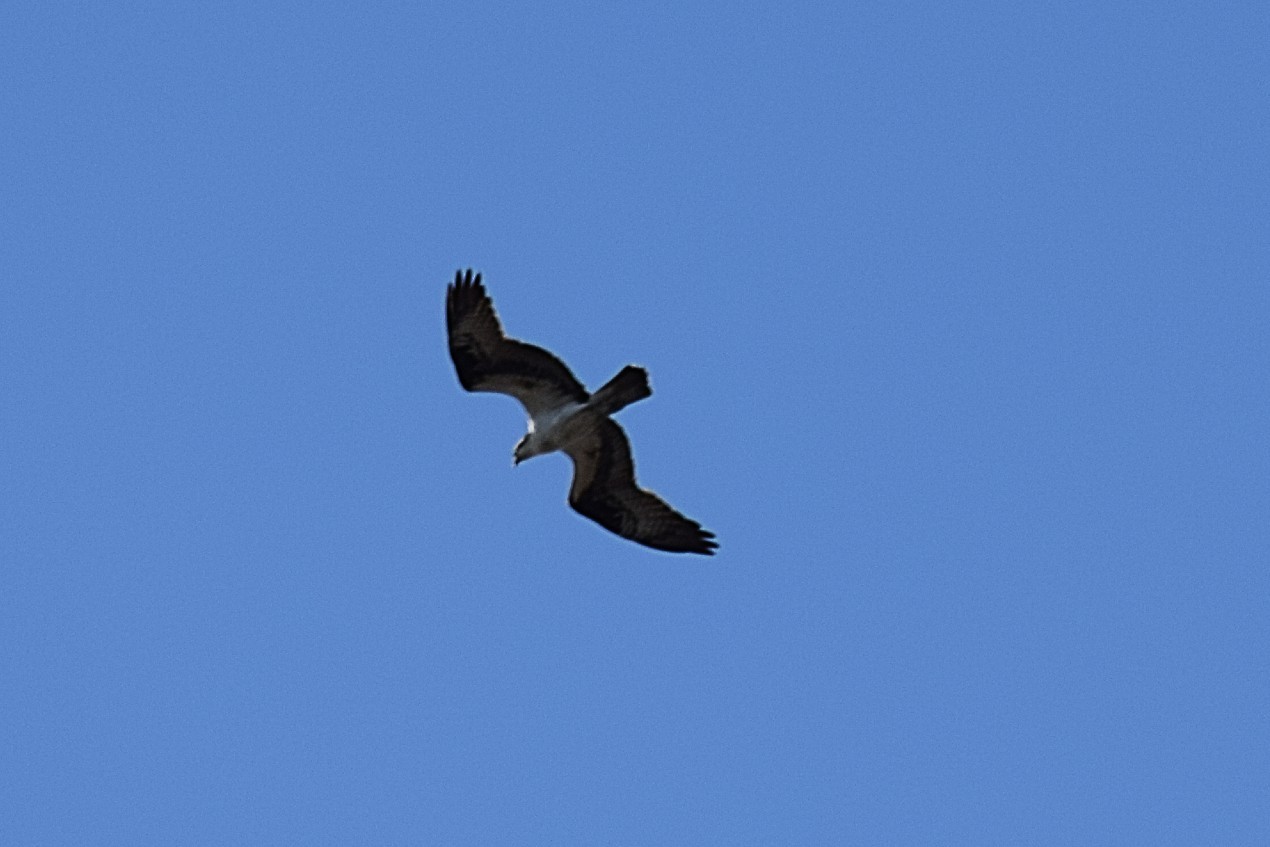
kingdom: Animalia
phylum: Chordata
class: Aves
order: Accipitriformes
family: Pandionidae
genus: Pandion
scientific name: Pandion haliaetus
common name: Osprey
